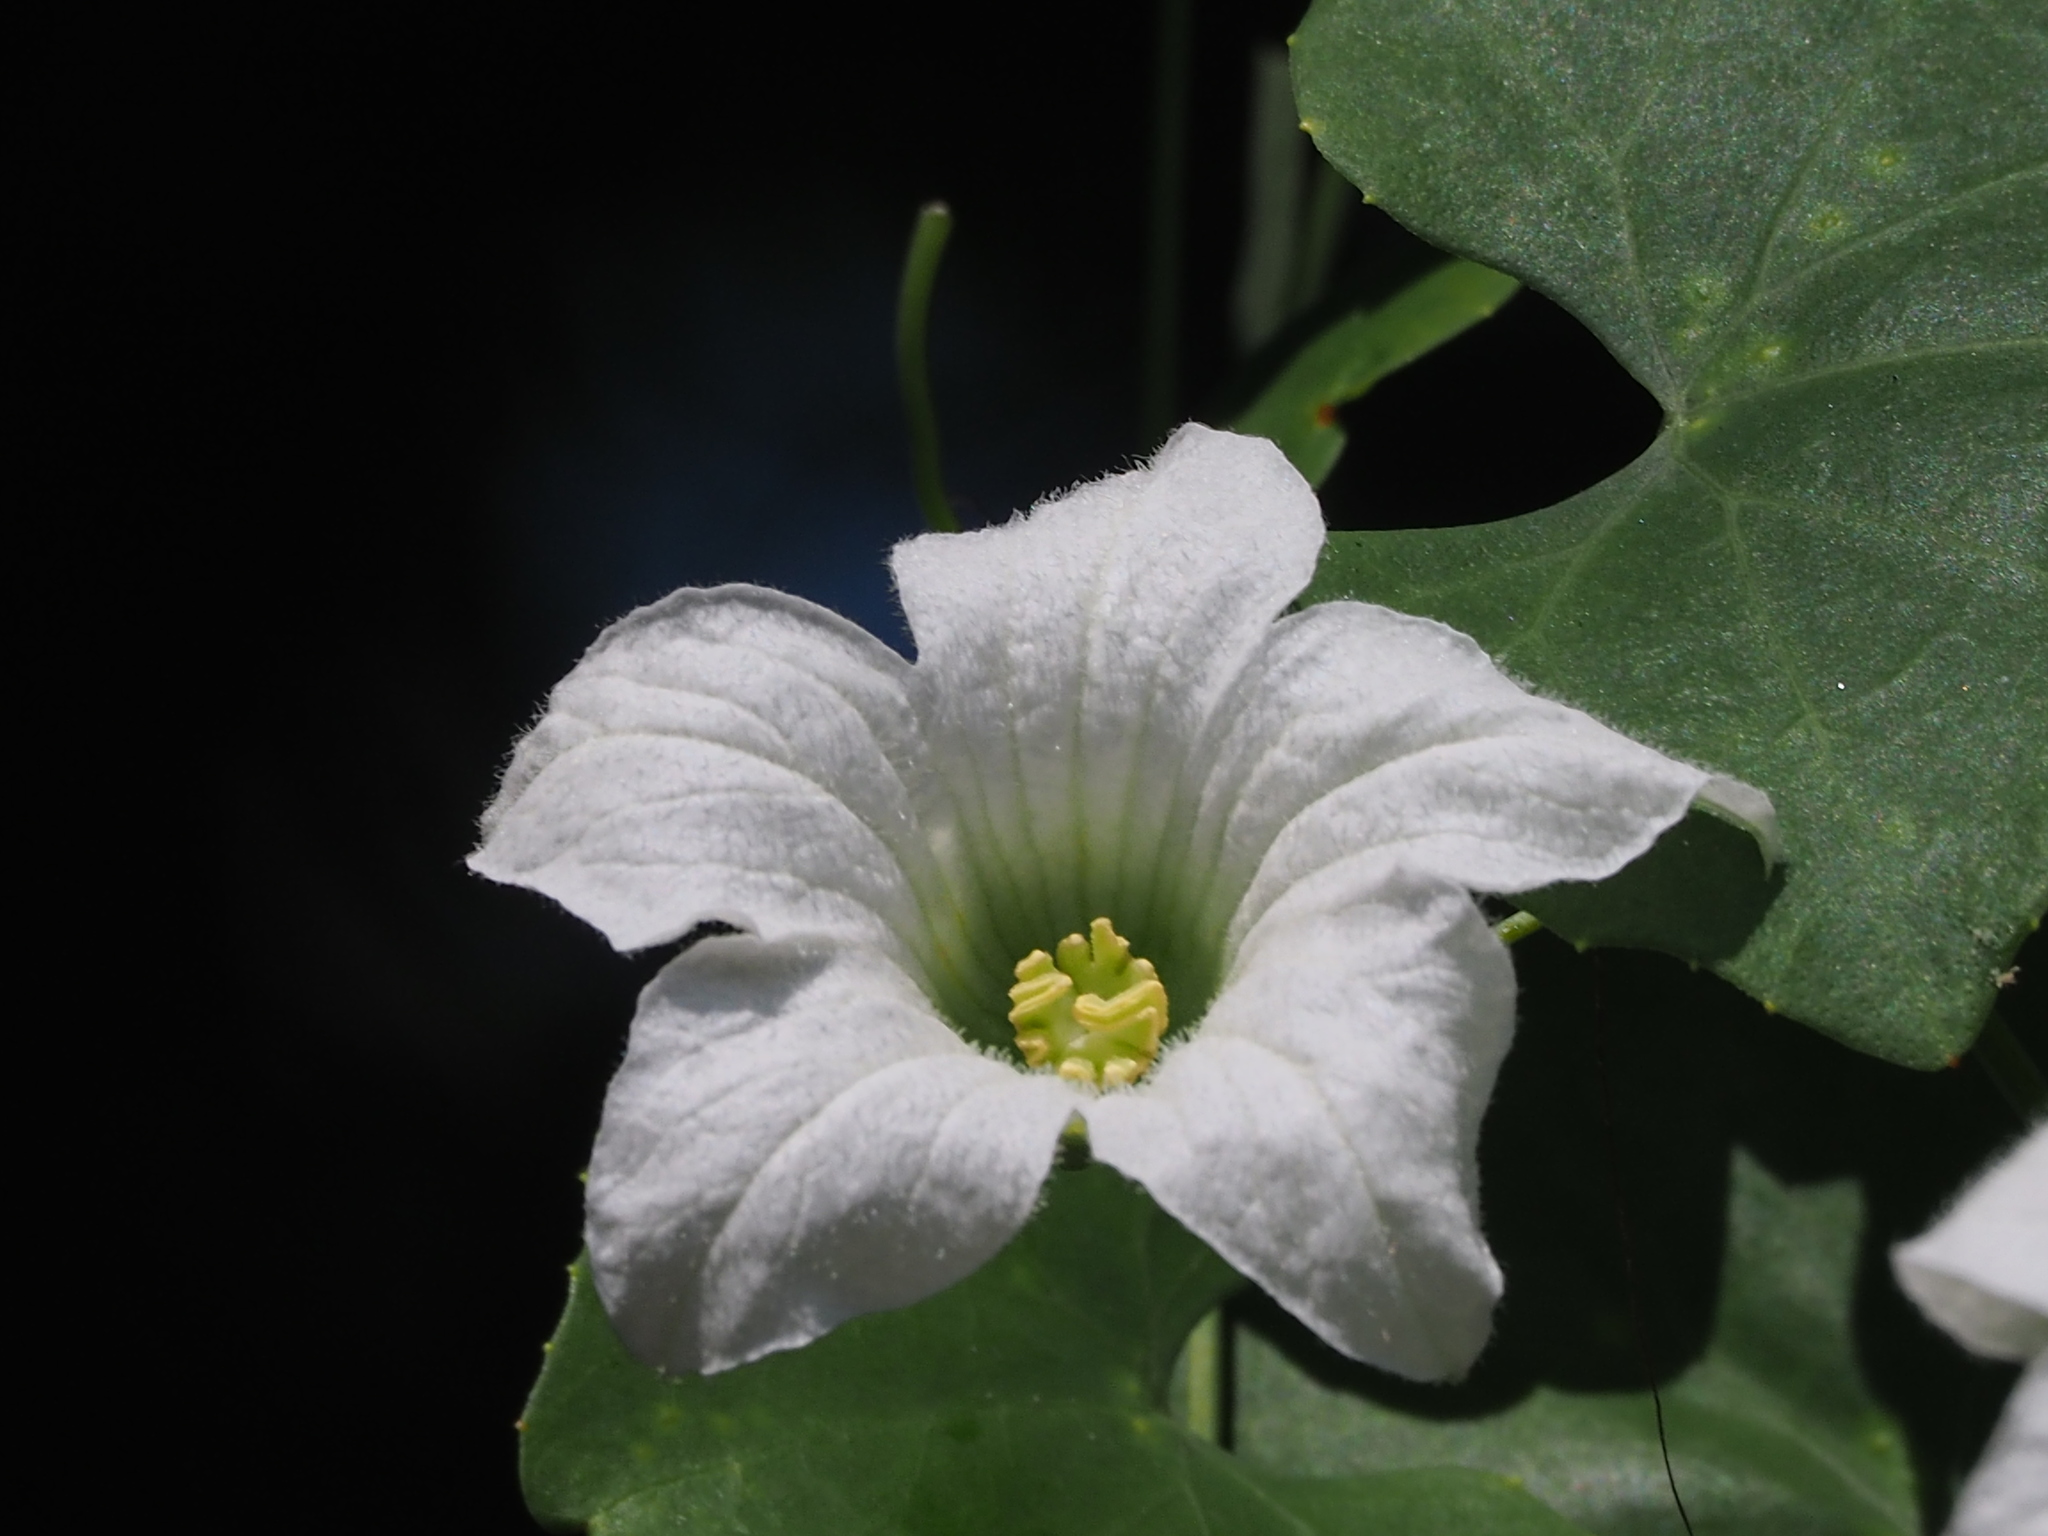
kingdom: Plantae
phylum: Tracheophyta
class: Magnoliopsida
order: Cucurbitales
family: Cucurbitaceae
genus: Coccinia
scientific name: Coccinia grandis
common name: Ivy gourd
